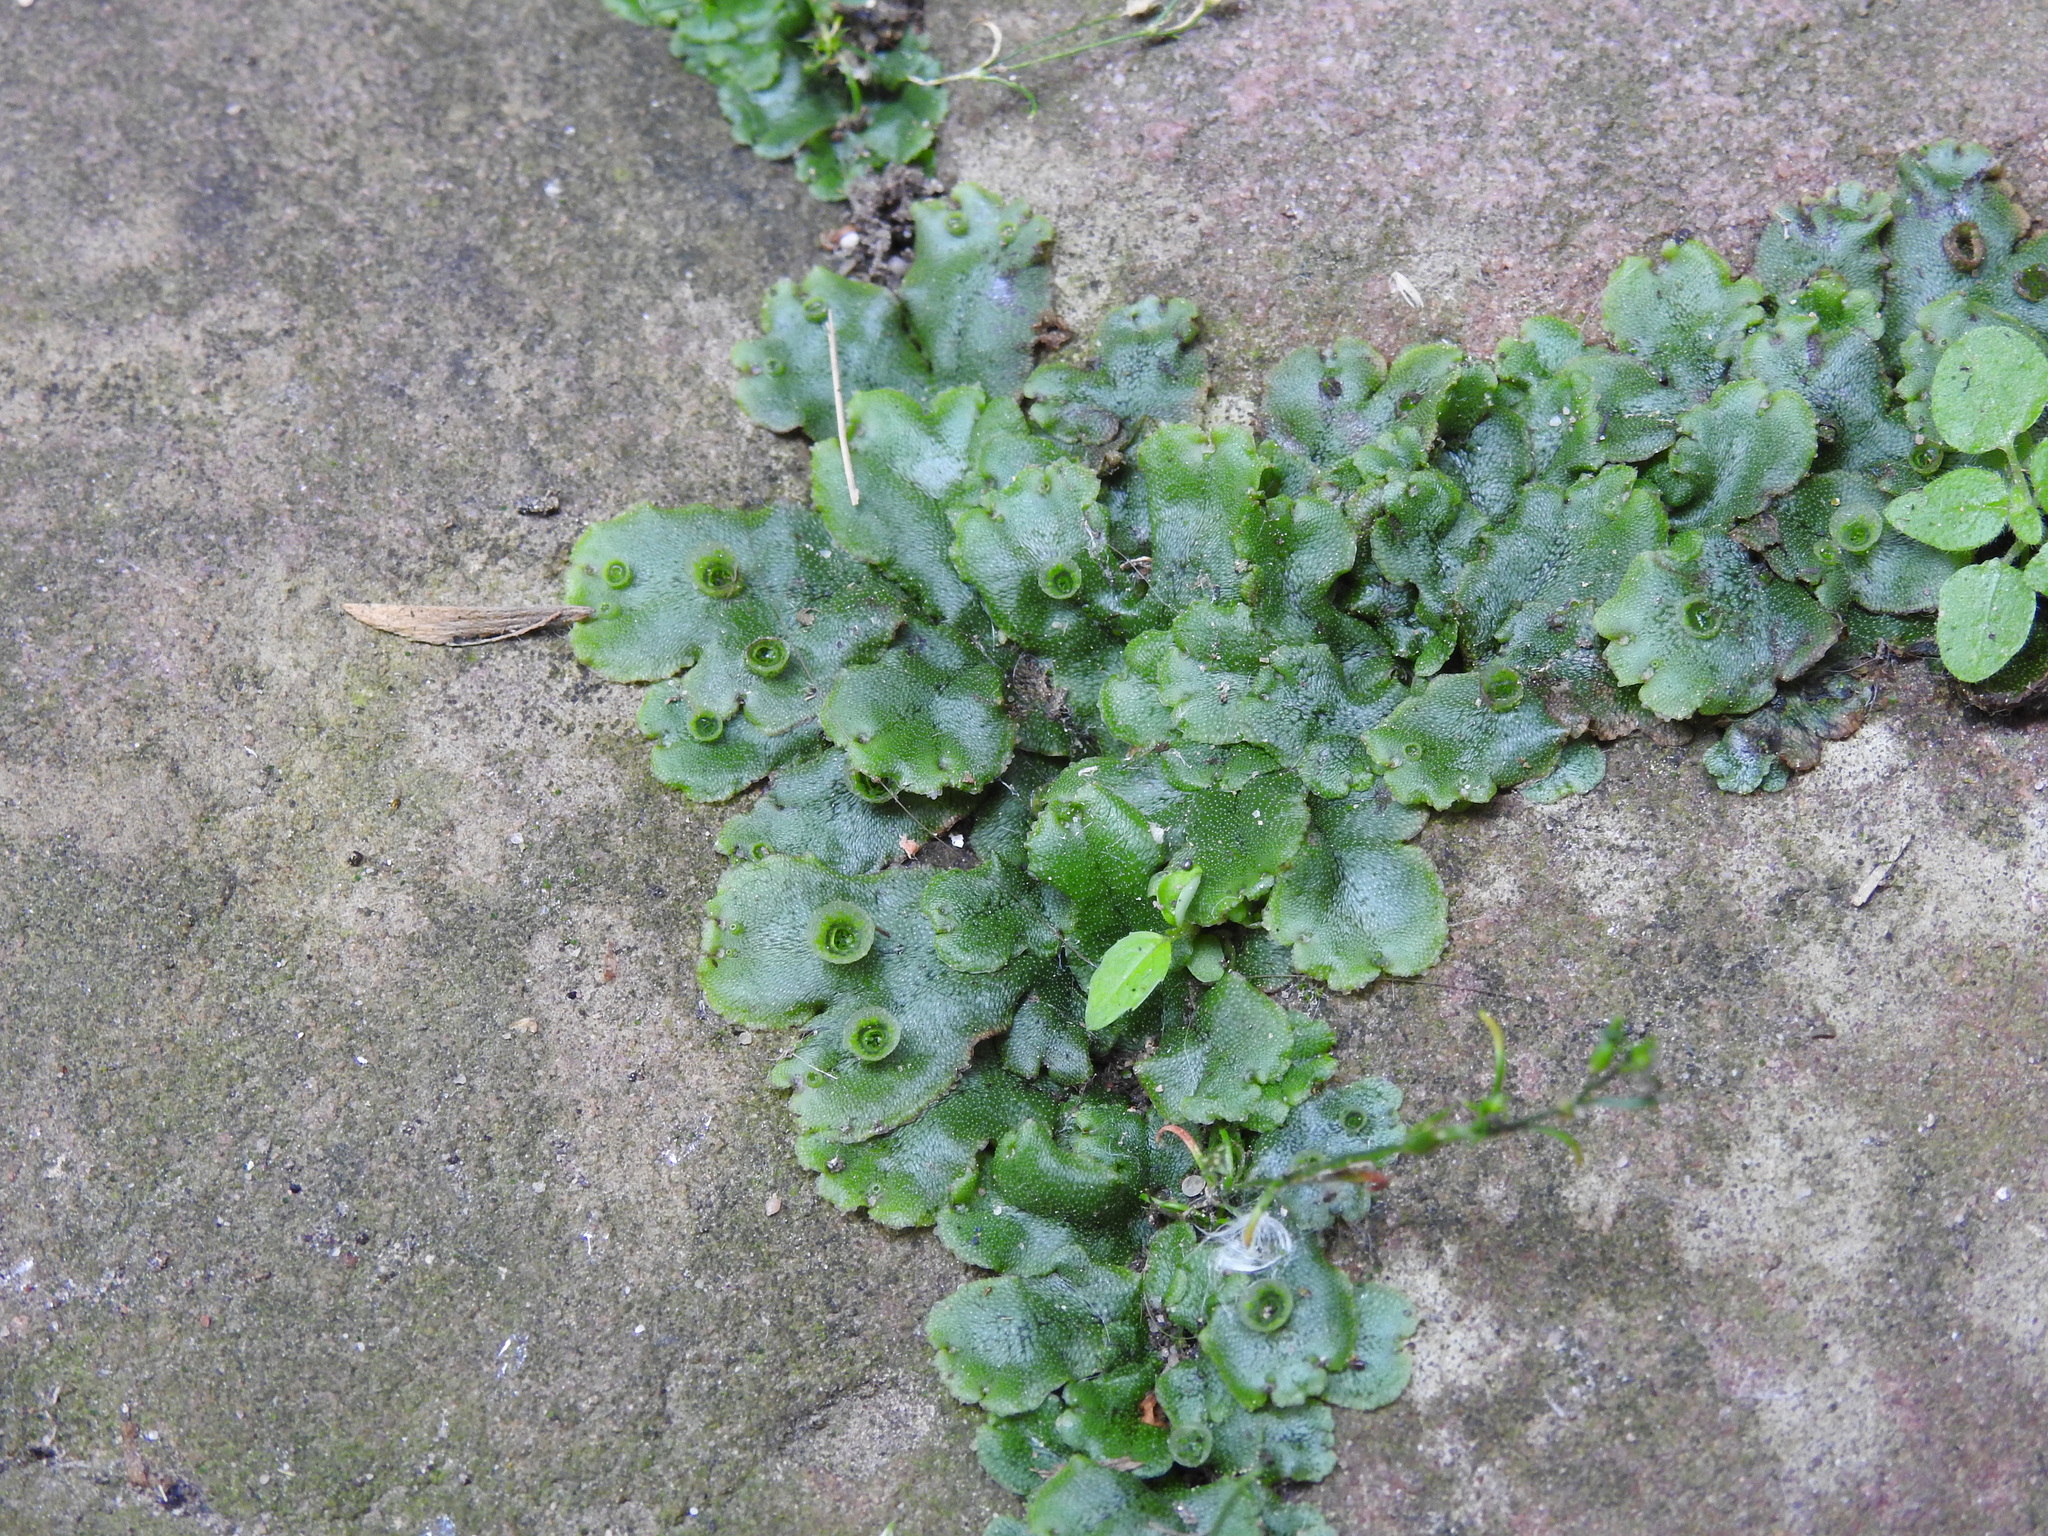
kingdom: Plantae
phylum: Marchantiophyta
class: Marchantiopsida
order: Marchantiales
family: Marchantiaceae
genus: Marchantia
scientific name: Marchantia polymorpha
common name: Common liverwort
